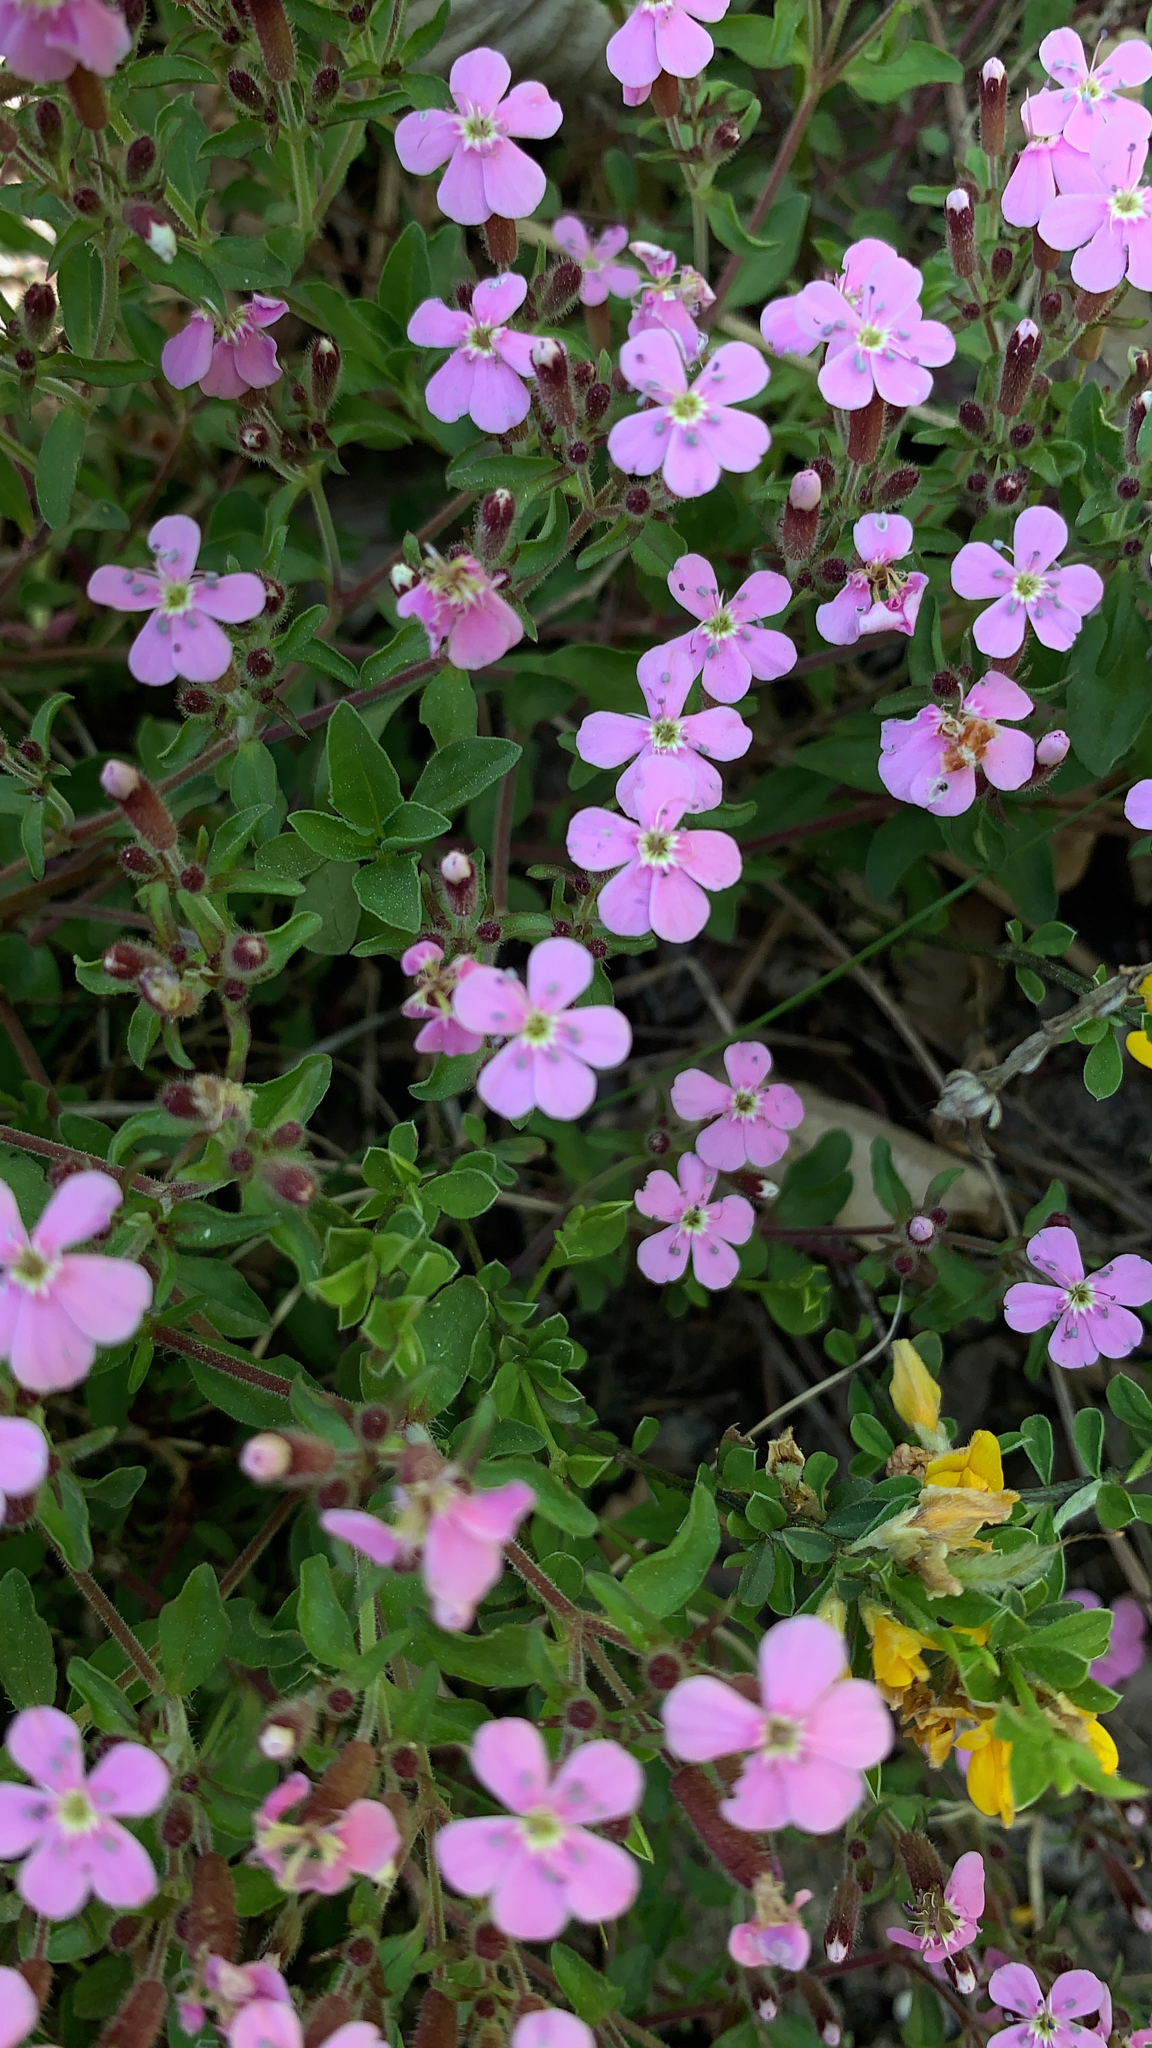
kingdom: Plantae
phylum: Tracheophyta
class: Magnoliopsida
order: Caryophyllales
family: Caryophyllaceae
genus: Saponaria
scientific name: Saponaria ocymoides
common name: Rock soapwort
